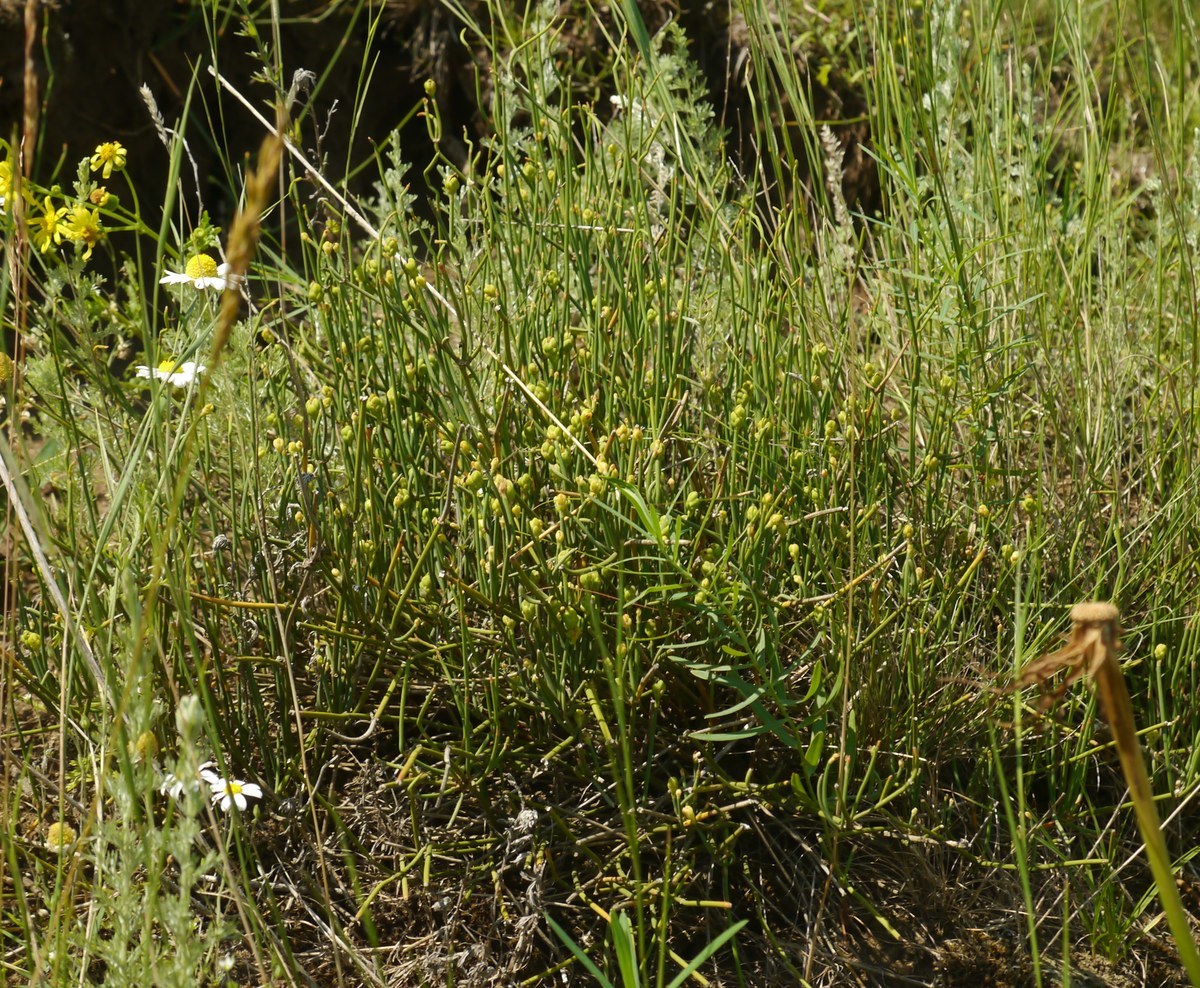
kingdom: Plantae
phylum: Tracheophyta
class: Gnetopsida
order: Ephedrales
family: Ephedraceae
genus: Ephedra
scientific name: Ephedra distachya
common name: Sea grape
